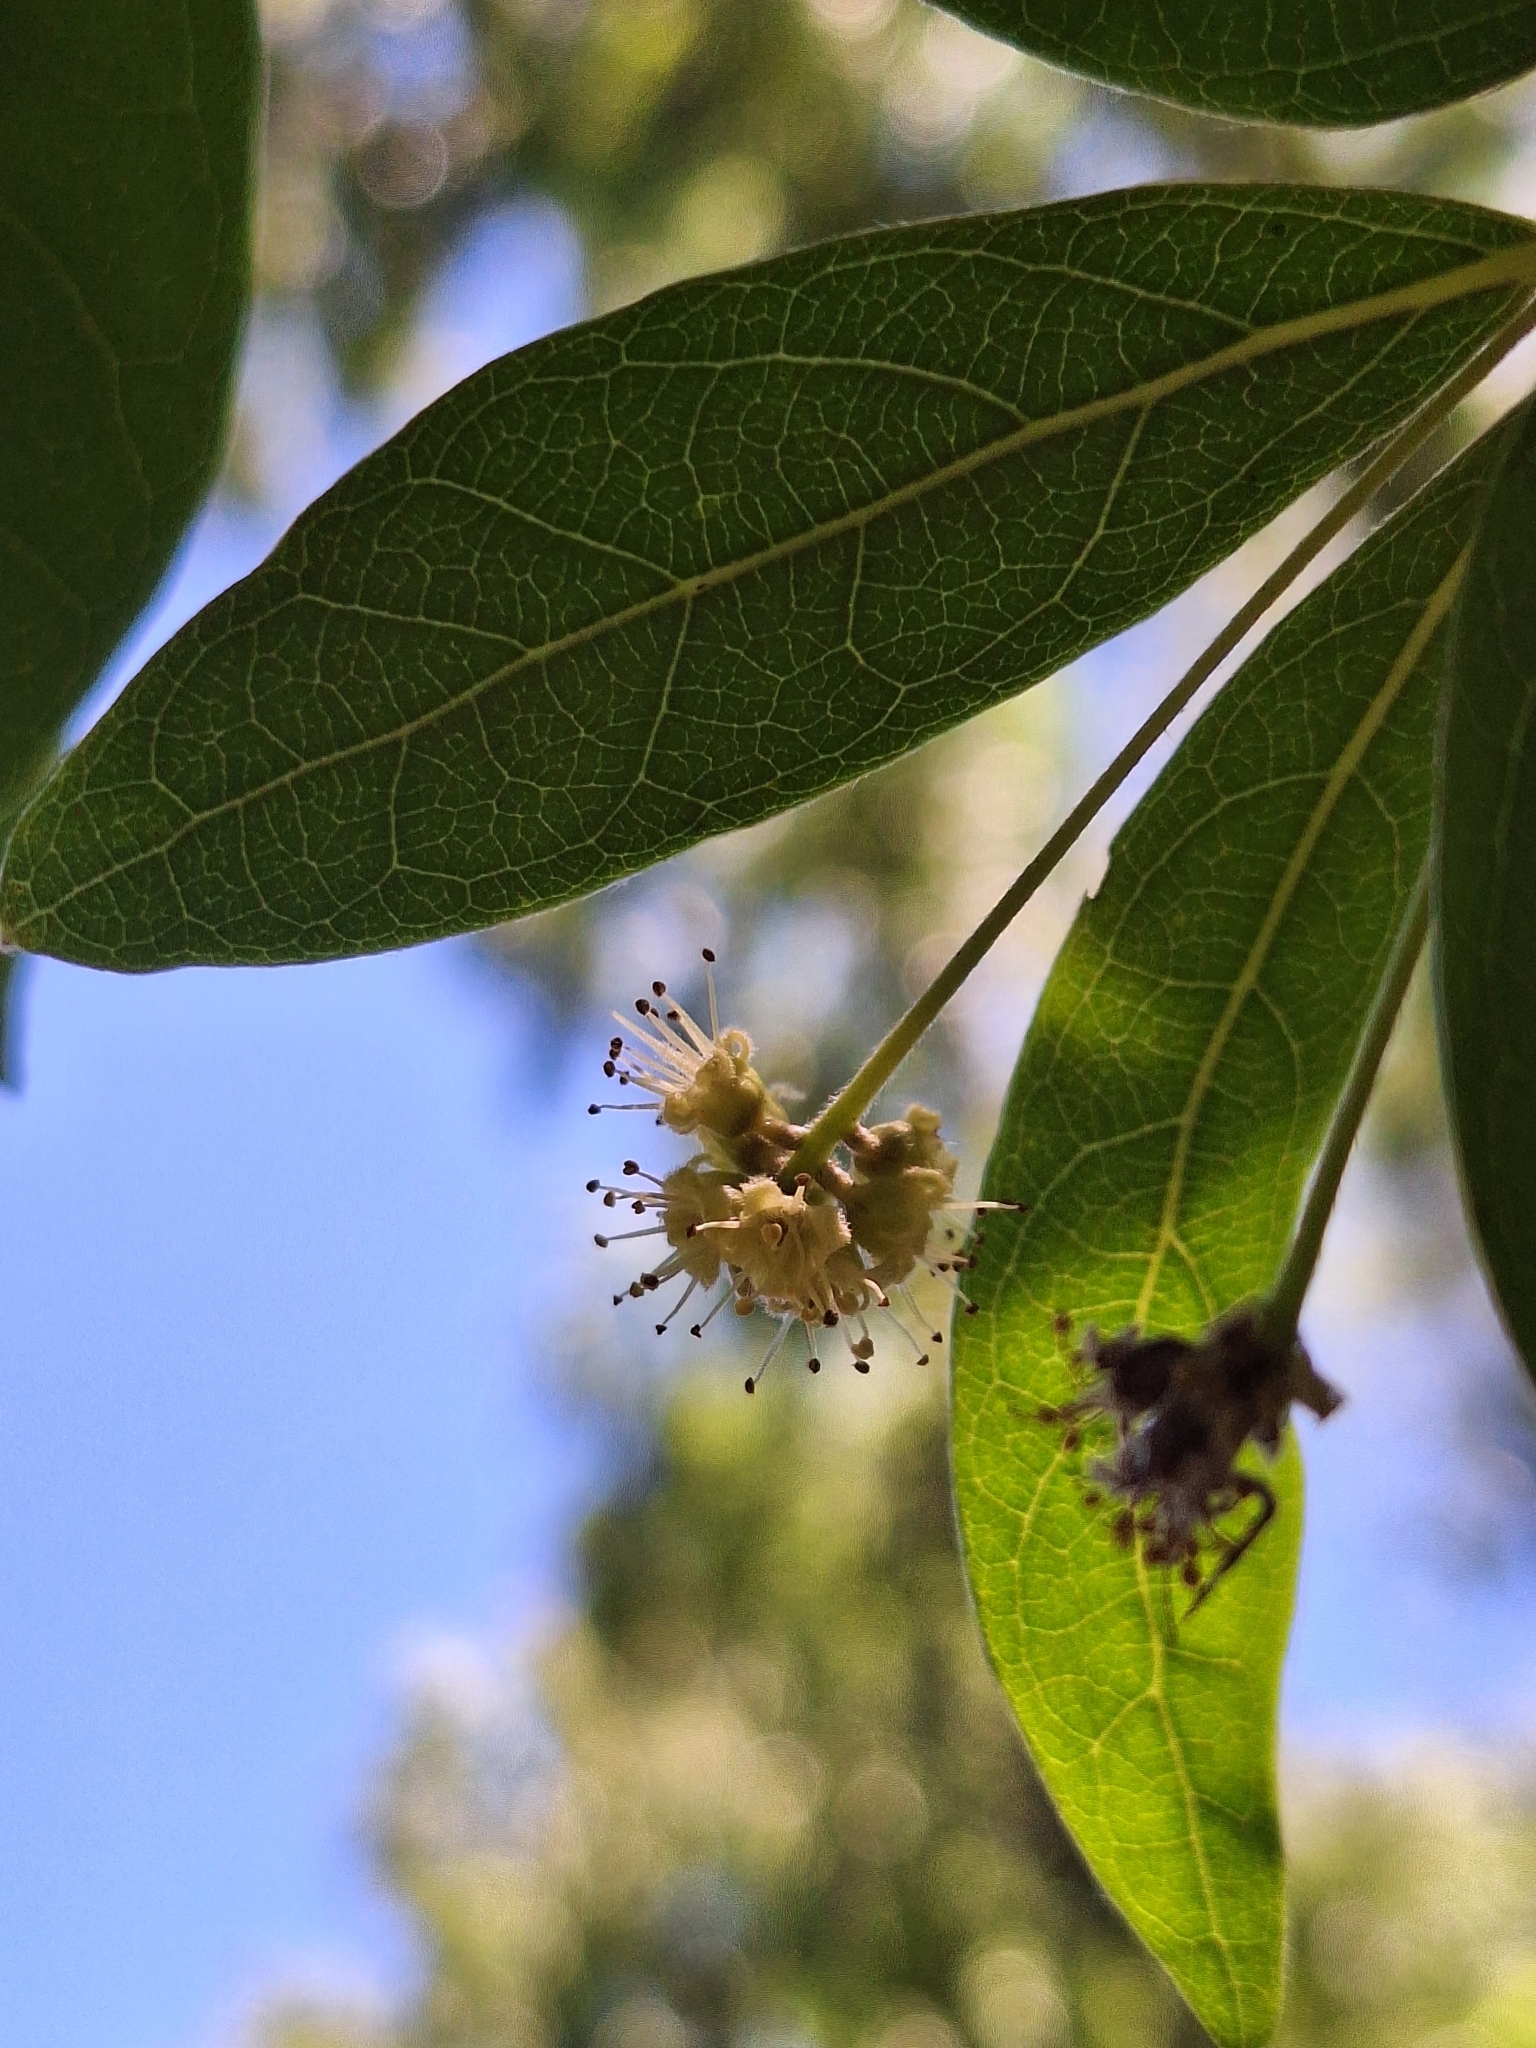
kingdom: Plantae
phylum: Tracheophyta
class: Magnoliopsida
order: Myrtales
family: Combretaceae
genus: Terminalia
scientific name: Terminalia australis
